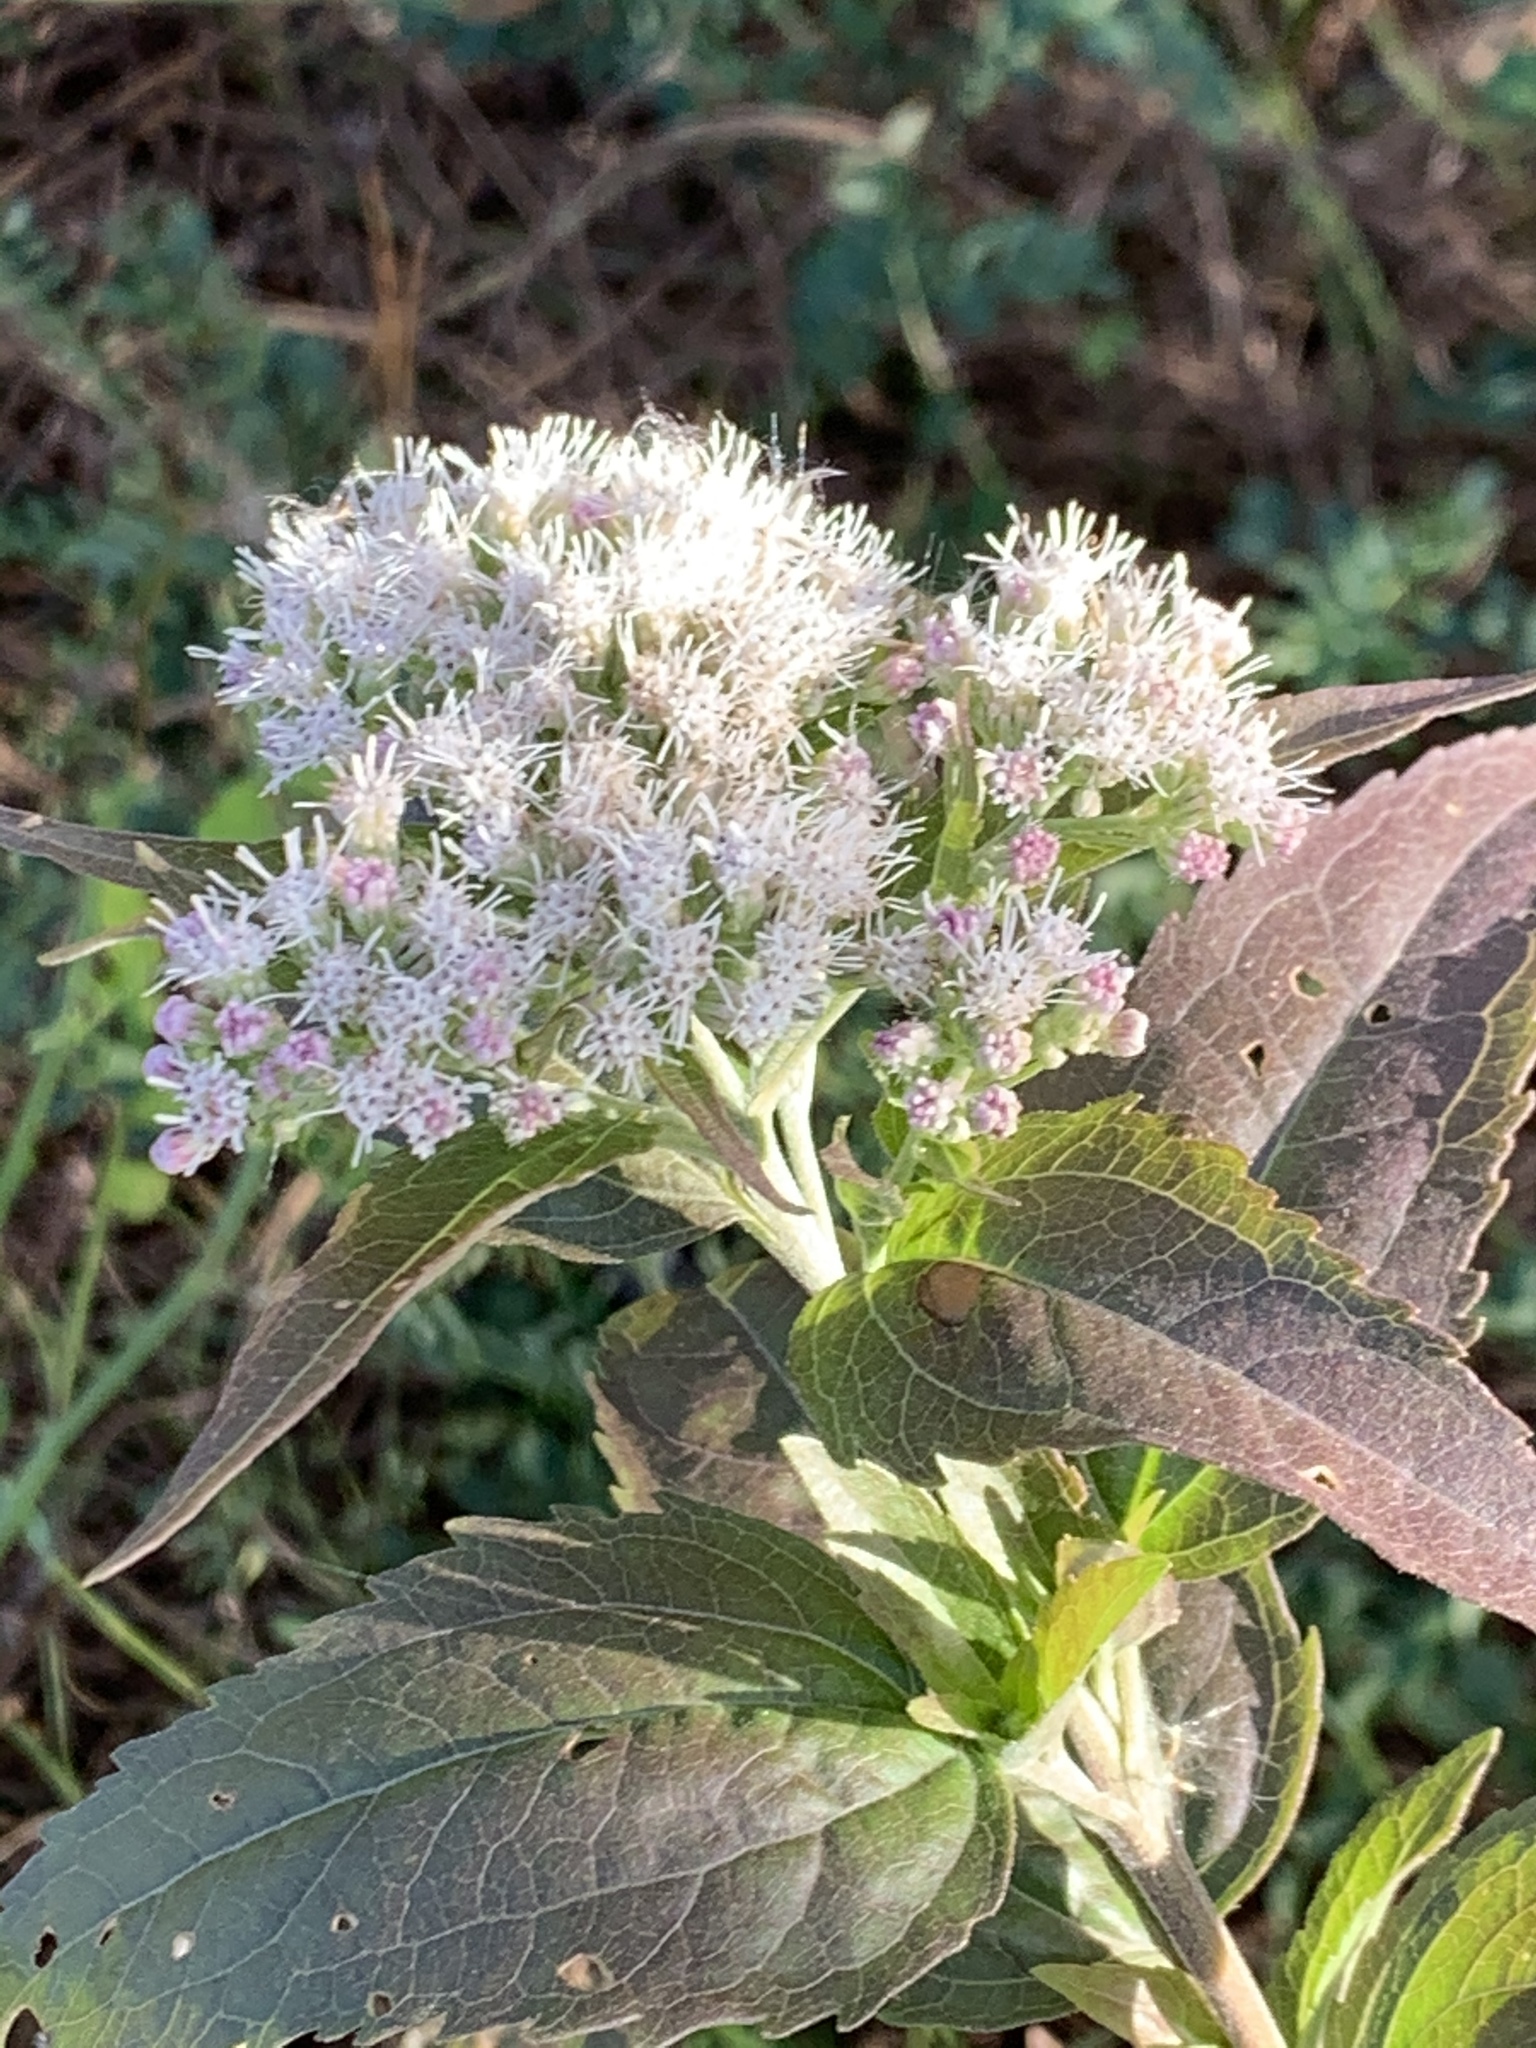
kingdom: Plantae
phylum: Tracheophyta
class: Magnoliopsida
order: Asterales
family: Asteraceae
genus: Eupatorium
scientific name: Eupatorium serotinum
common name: Late boneset
